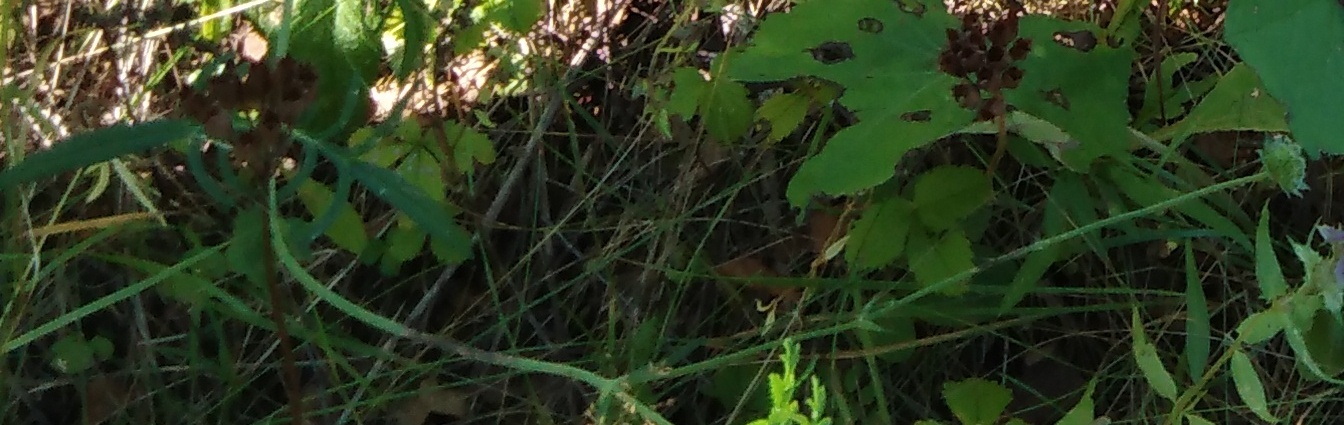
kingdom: Plantae
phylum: Tracheophyta
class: Magnoliopsida
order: Dipsacales
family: Caprifoliaceae
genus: Knautia
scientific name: Knautia arvensis
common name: Field scabiosa
